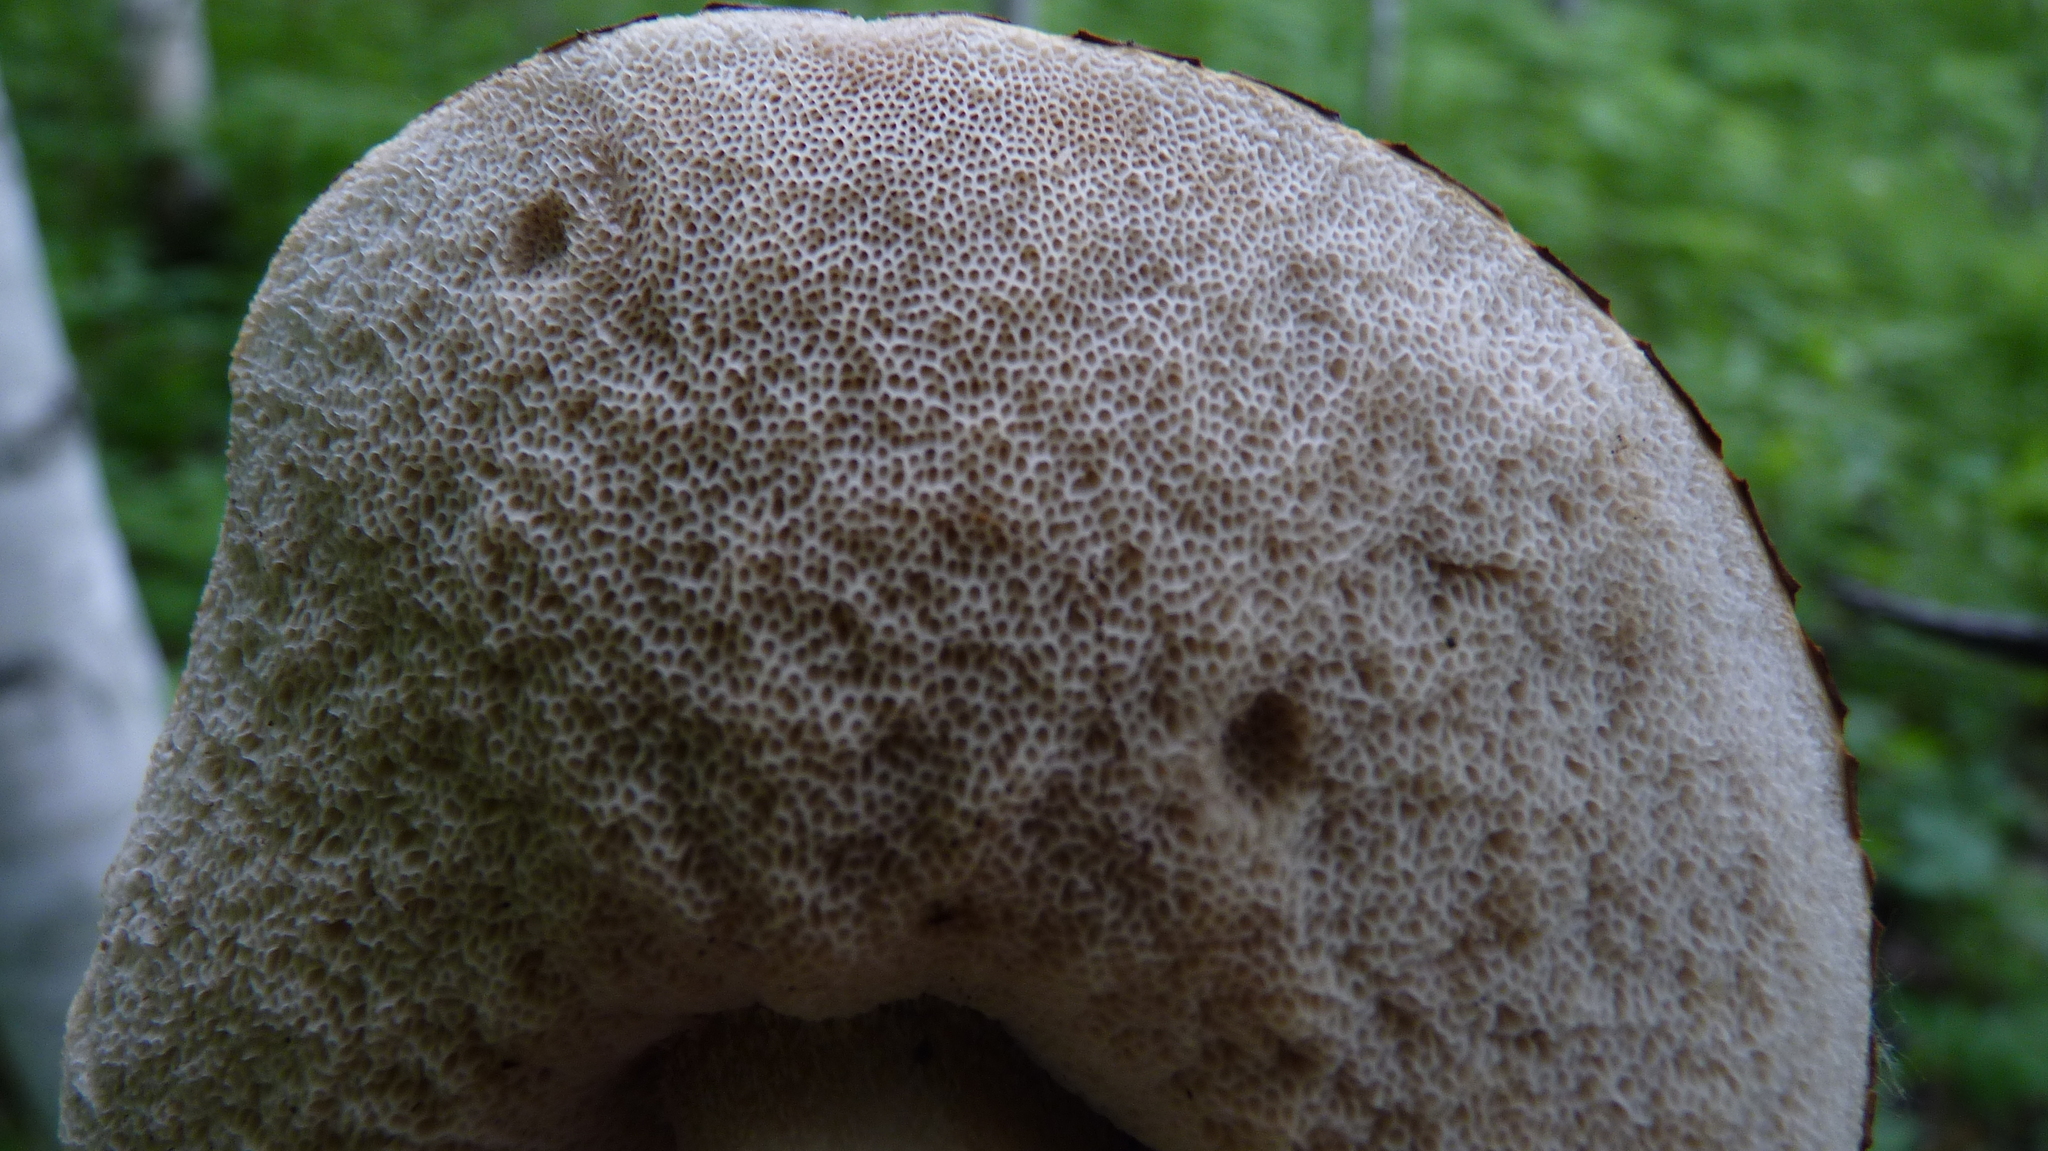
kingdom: Fungi
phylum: Basidiomycota
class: Agaricomycetes
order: Boletales
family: Boletaceae
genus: Leccinum
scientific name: Leccinum scabrum
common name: Blushing bolete
